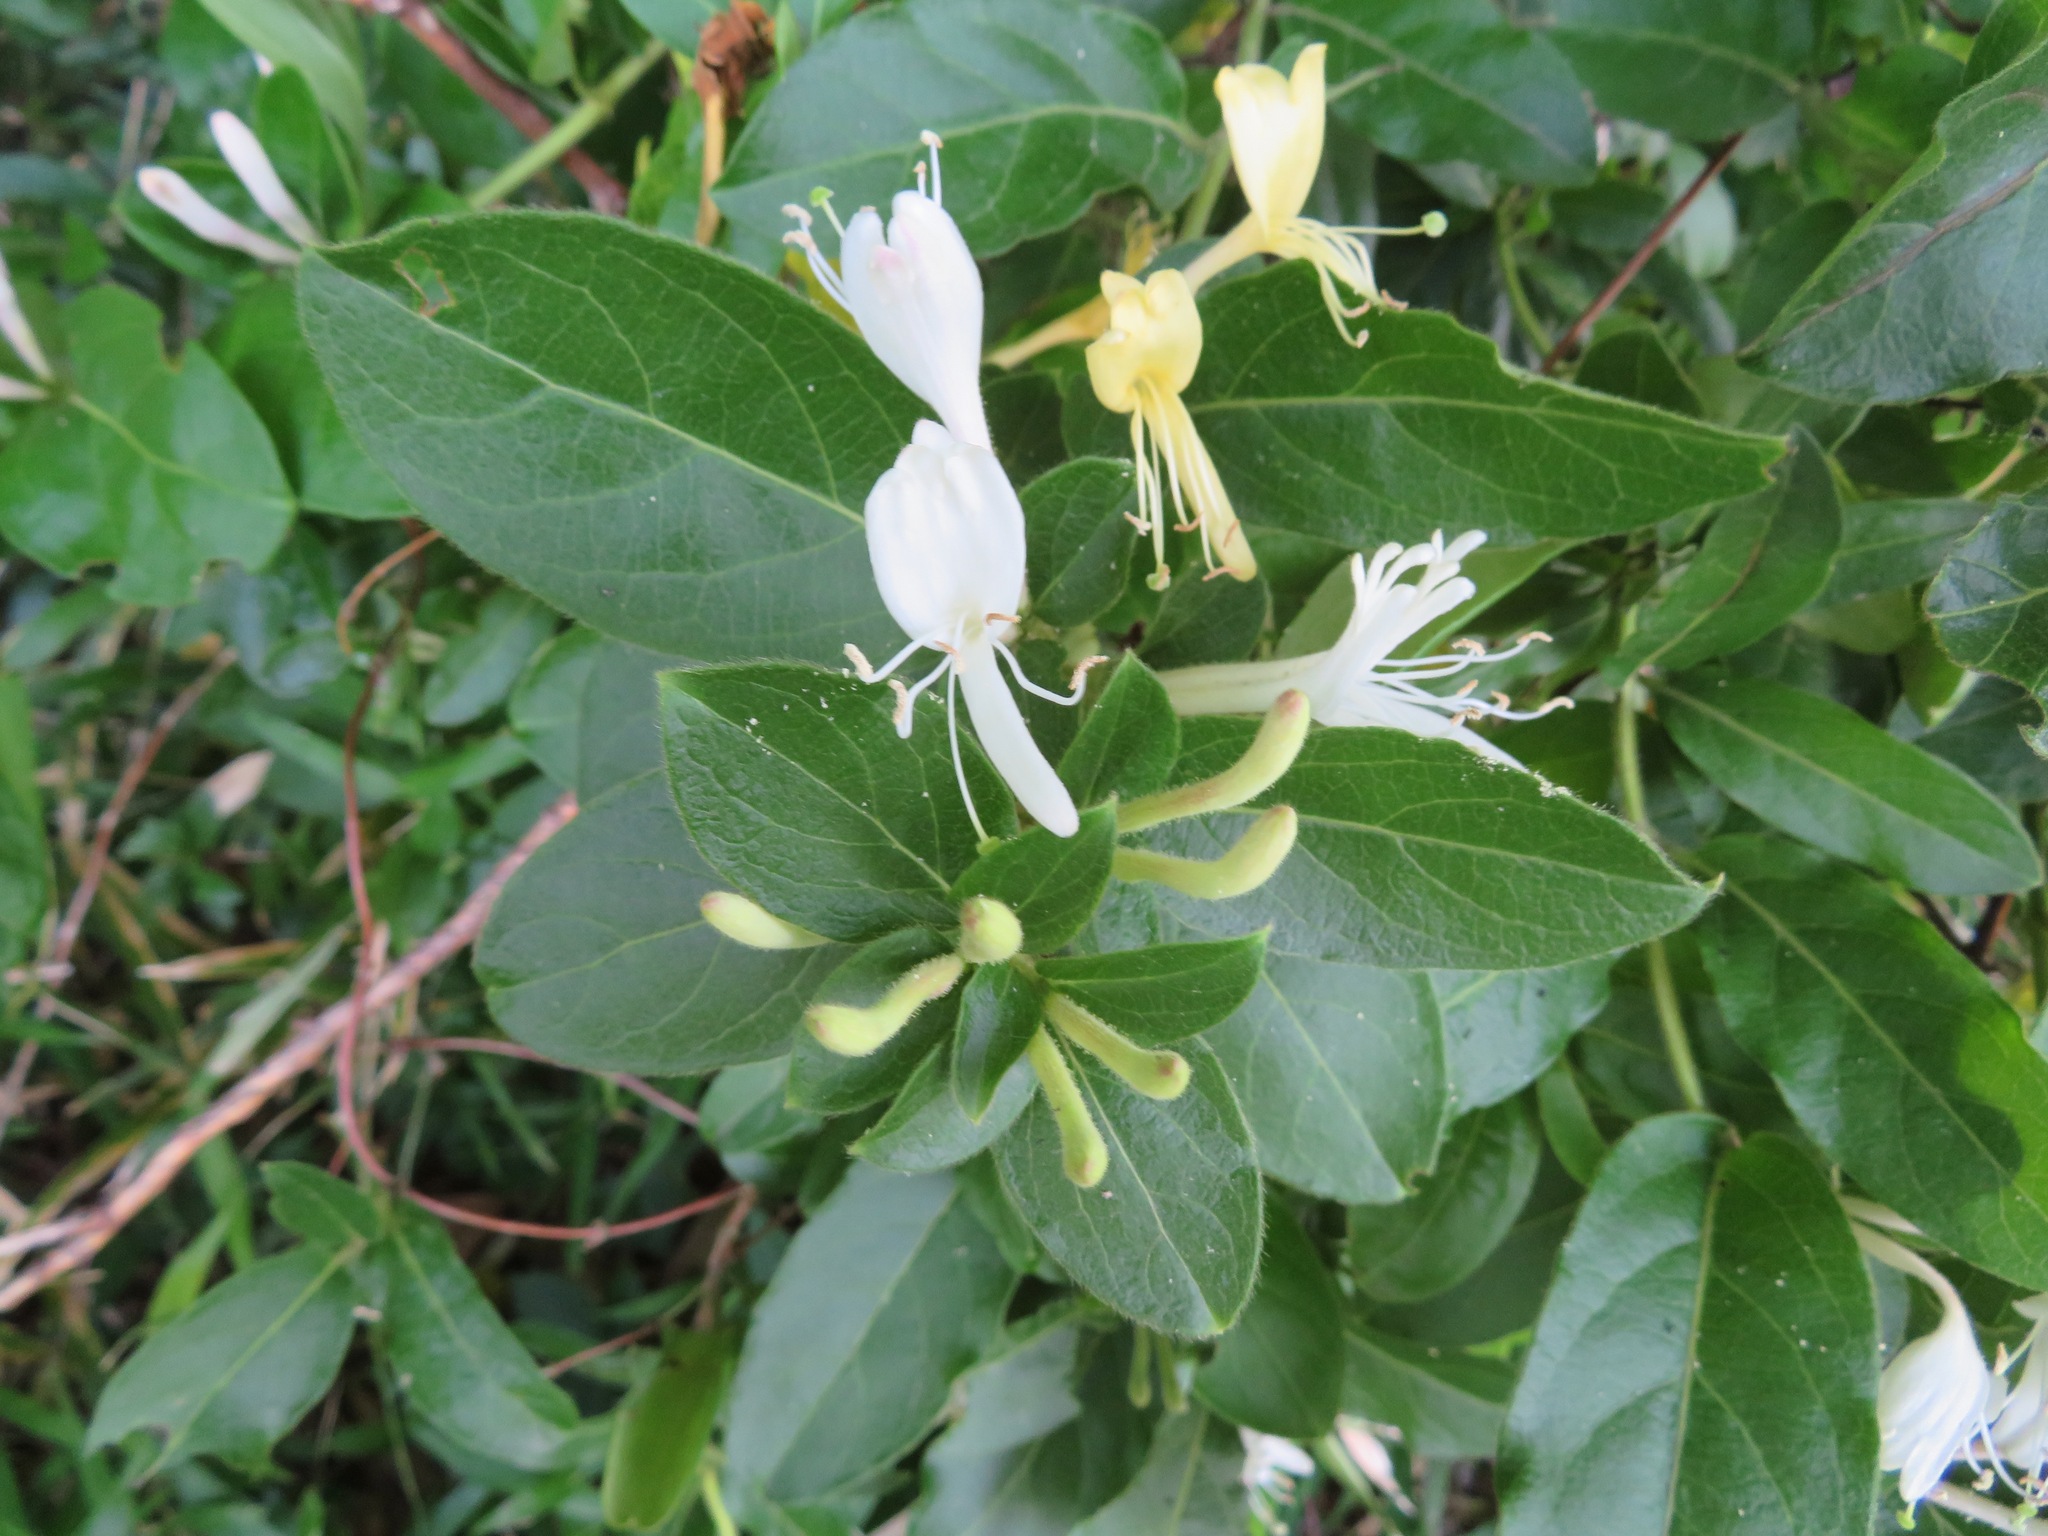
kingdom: Plantae
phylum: Tracheophyta
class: Magnoliopsida
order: Dipsacales
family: Caprifoliaceae
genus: Lonicera
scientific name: Lonicera japonica
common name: Japanese honeysuckle
